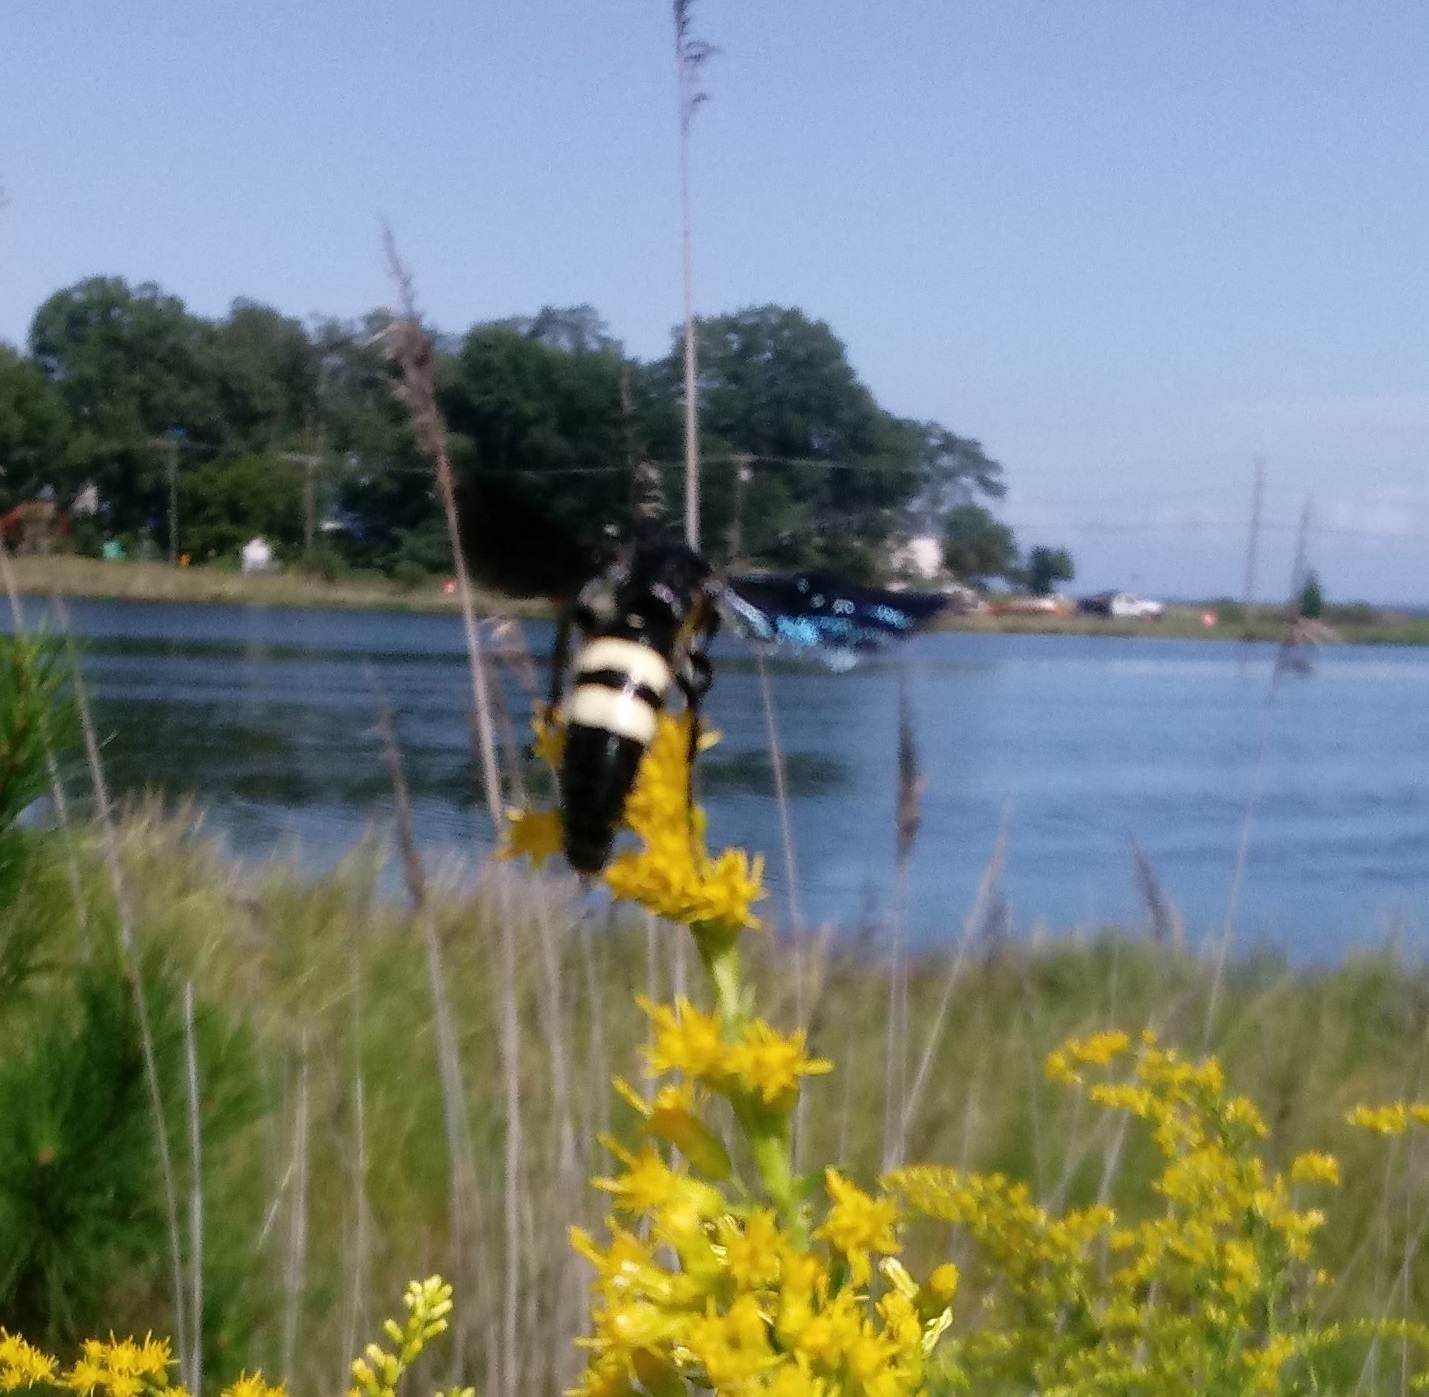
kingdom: Animalia
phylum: Arthropoda
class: Insecta
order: Hymenoptera
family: Scoliidae
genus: Scolia
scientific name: Scolia bicincta
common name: Double-banded scoliid wasp
